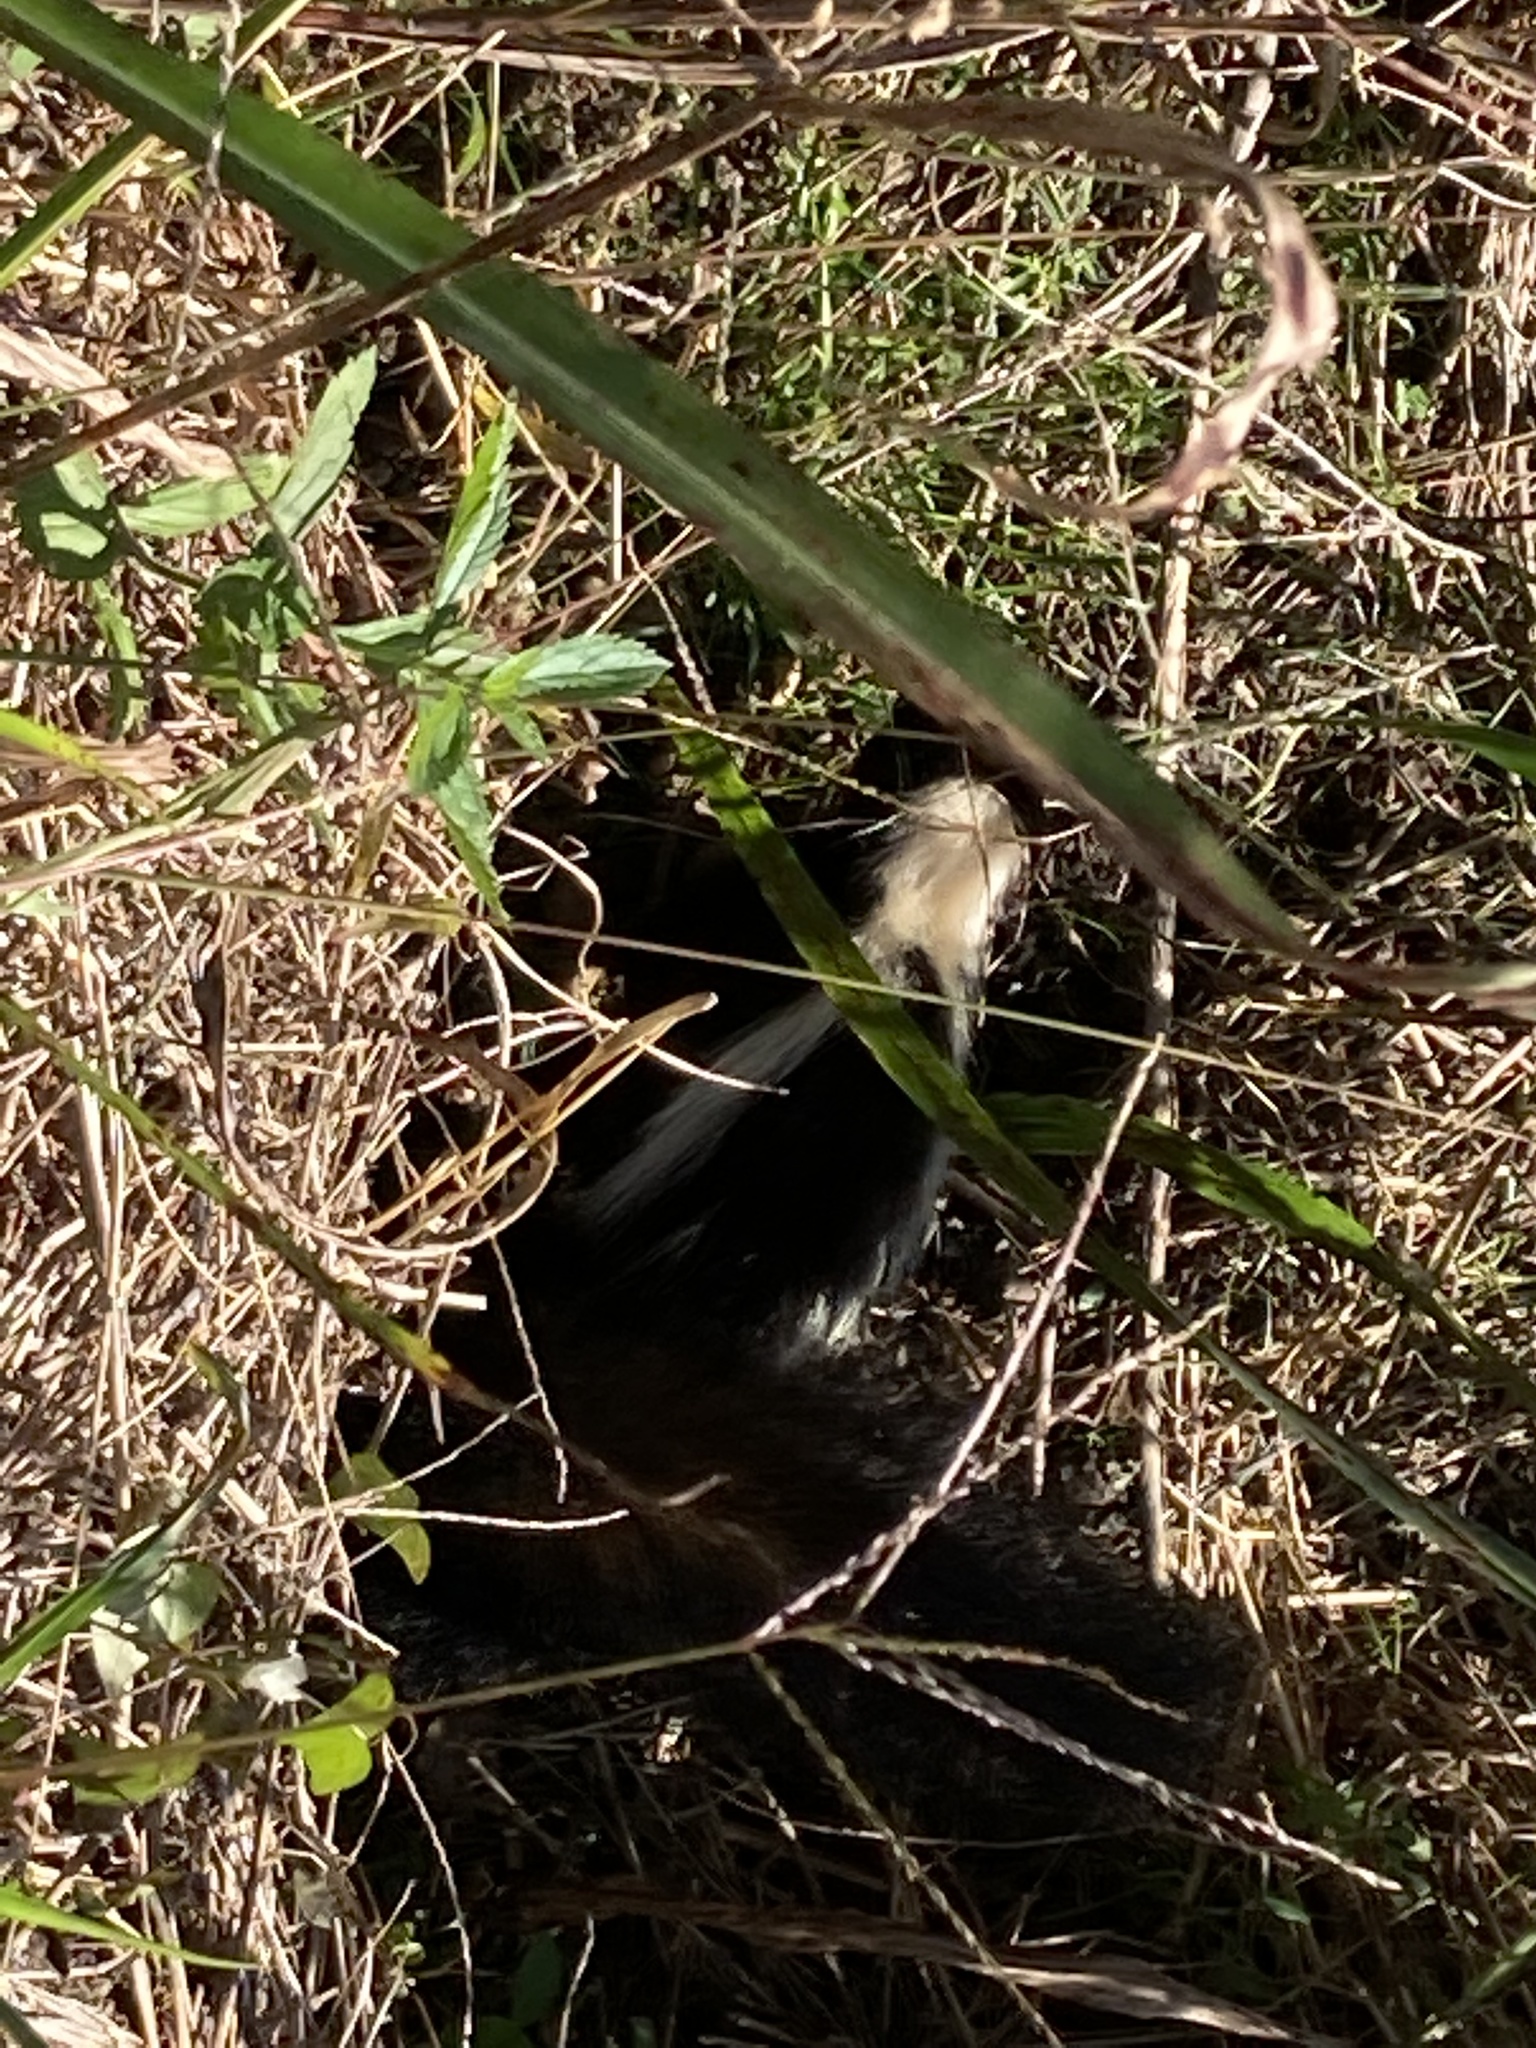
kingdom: Animalia
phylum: Chordata
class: Mammalia
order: Carnivora
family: Mephitidae
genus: Mephitis
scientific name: Mephitis mephitis
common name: Striped skunk
